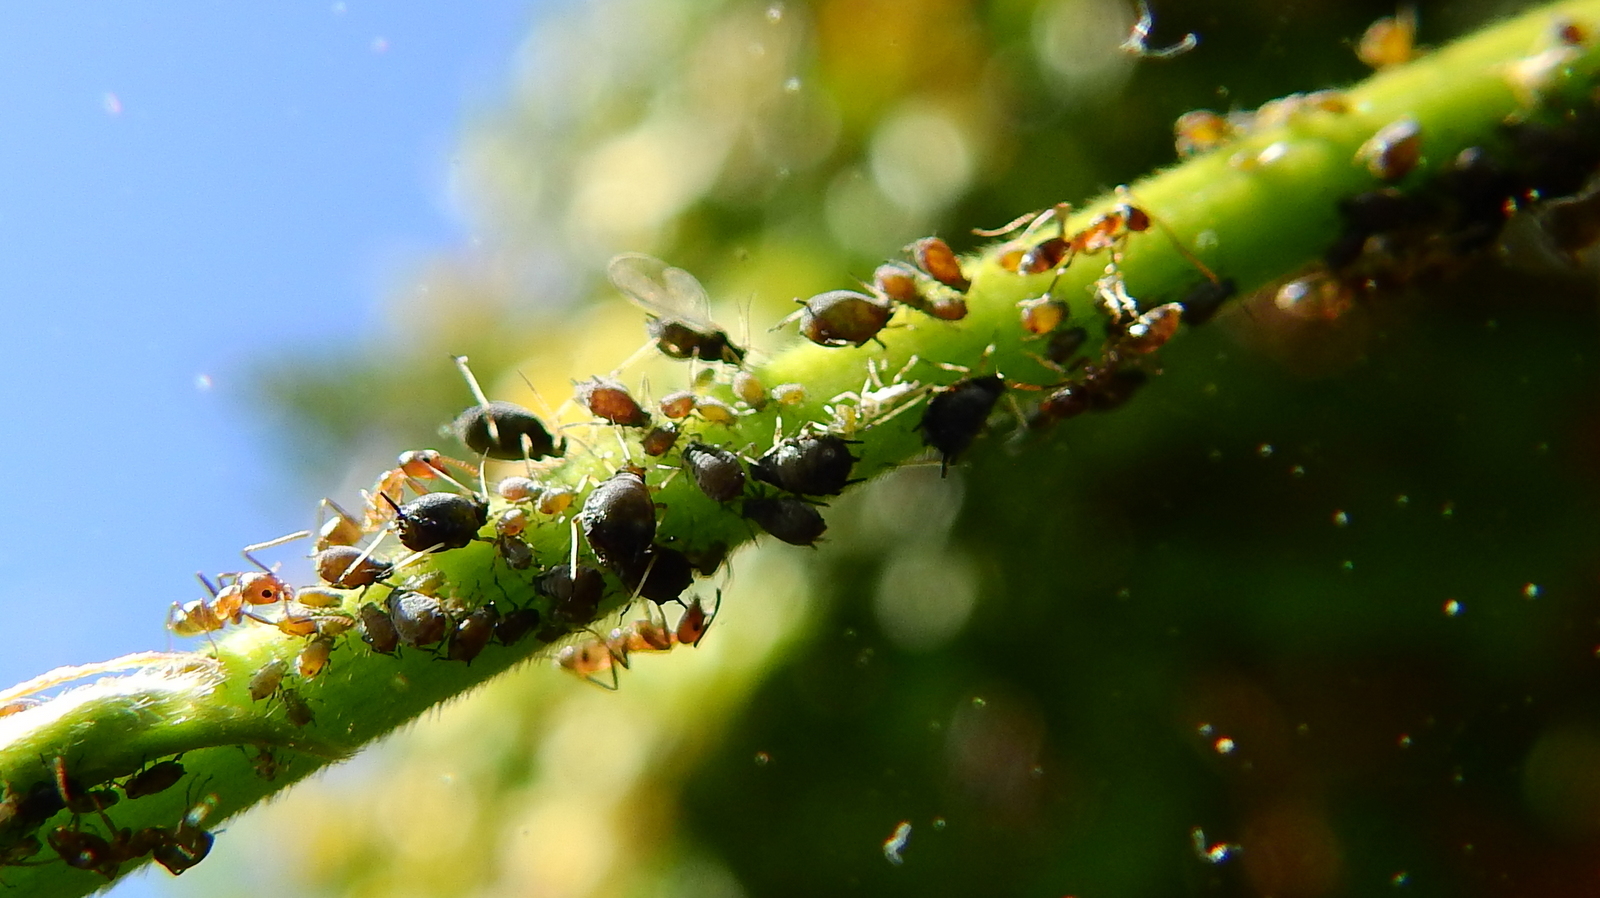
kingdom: Animalia
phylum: Arthropoda
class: Insecta
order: Hymenoptera
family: Formicidae
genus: Linepithema
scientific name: Linepithema humile
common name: Argentine ant
